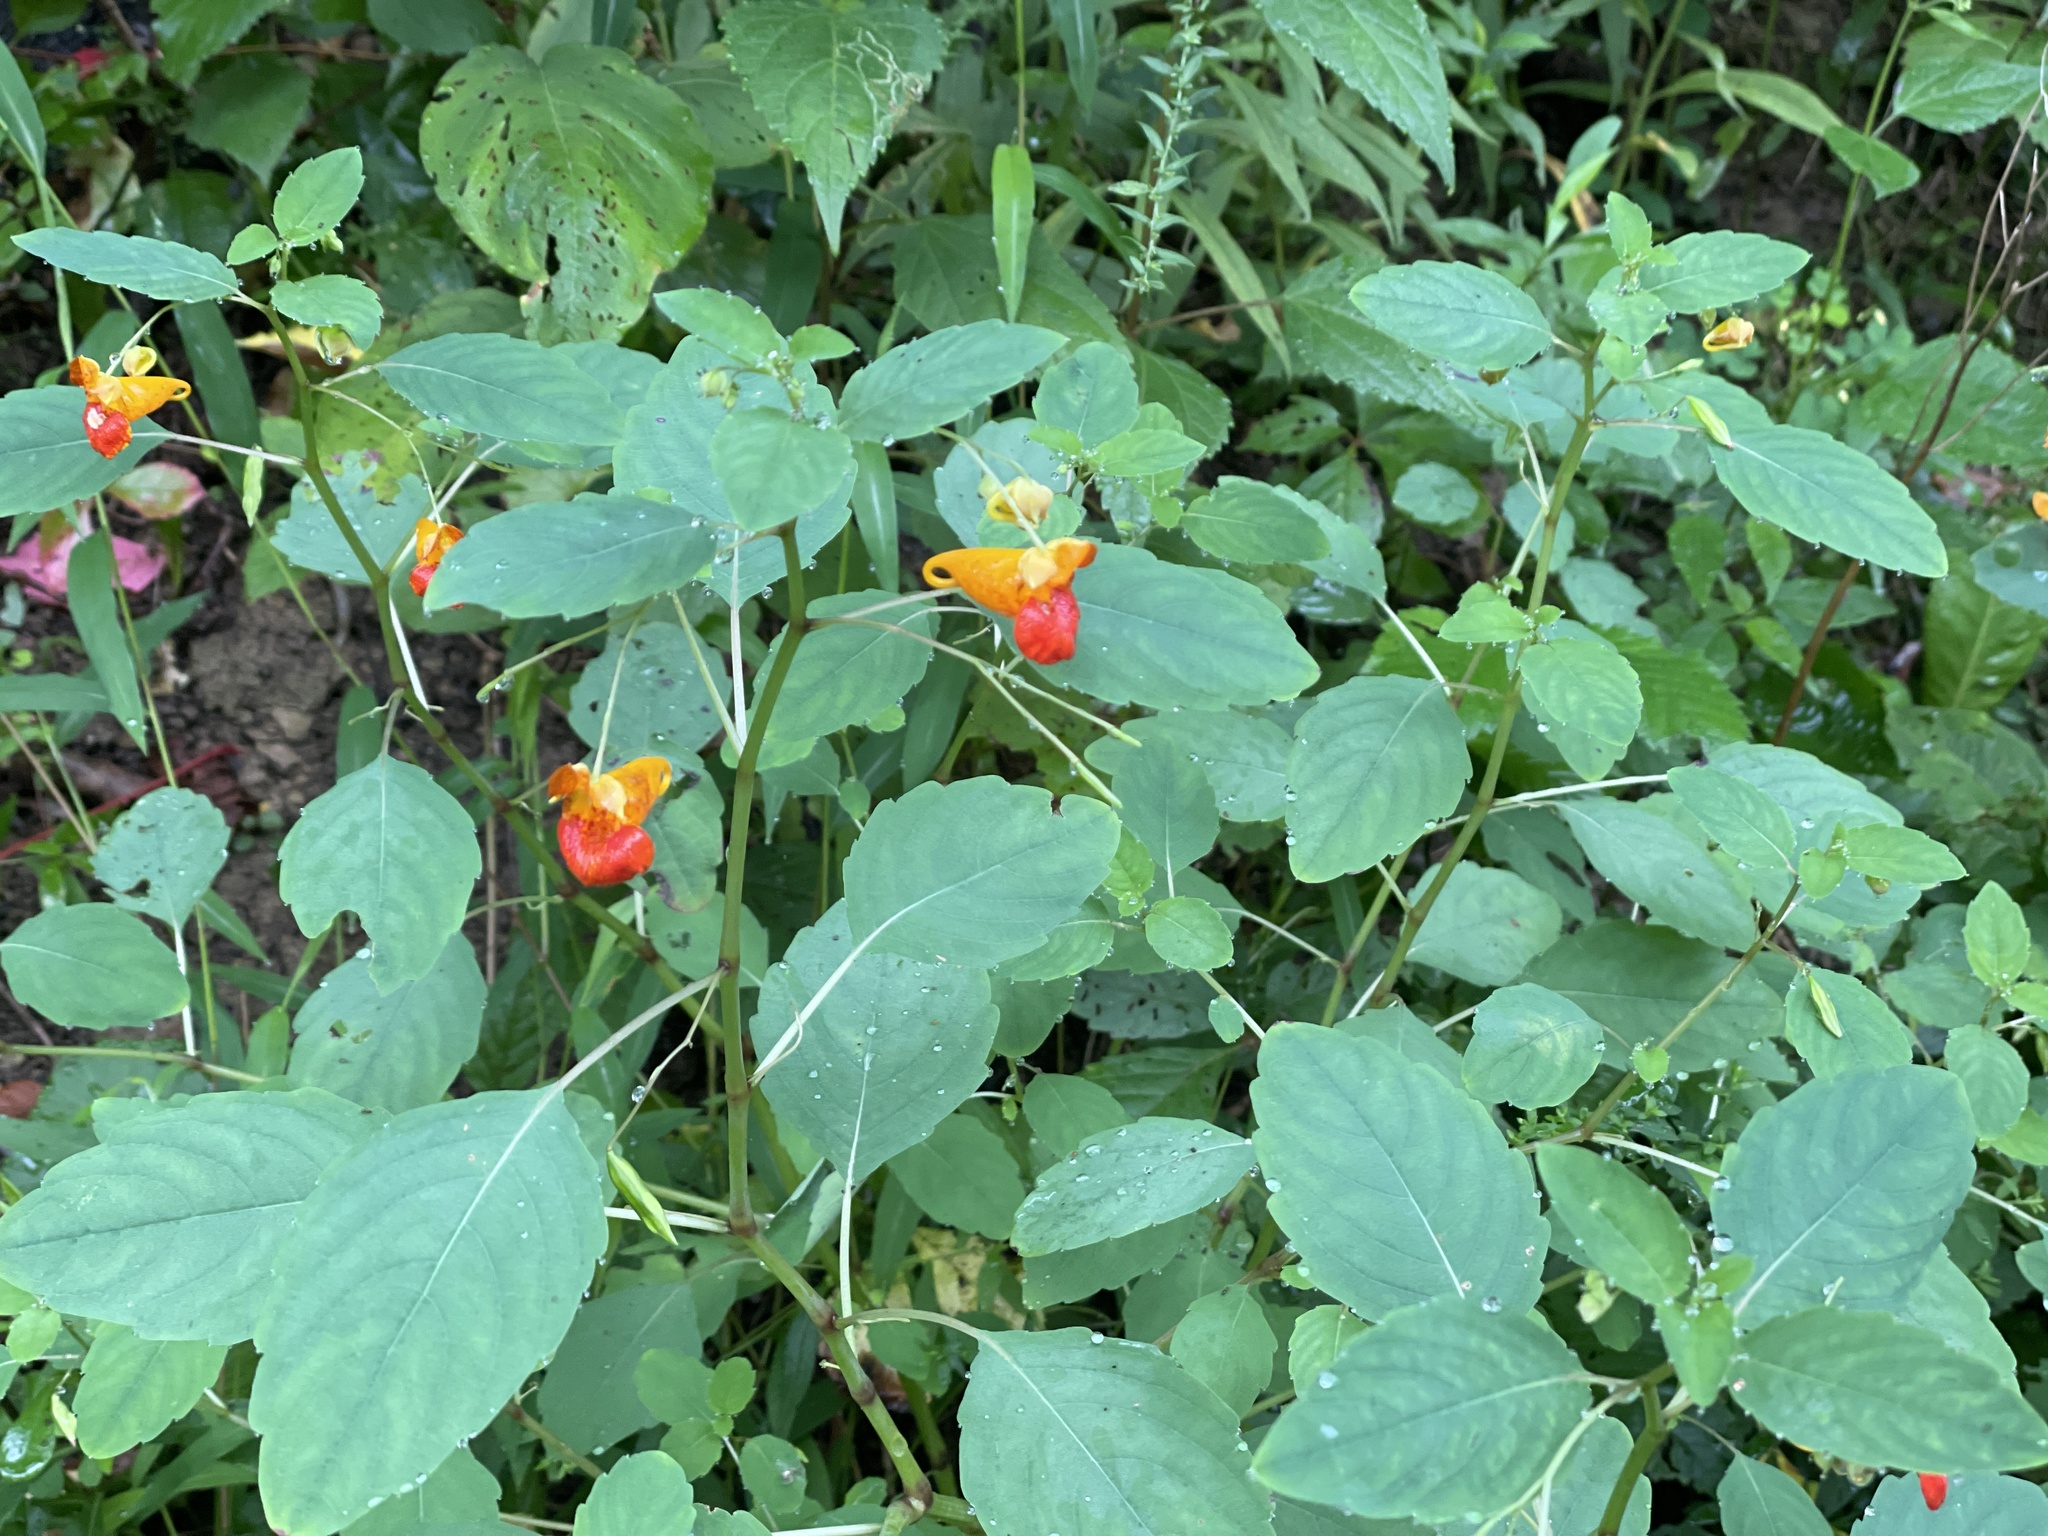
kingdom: Plantae
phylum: Tracheophyta
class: Magnoliopsida
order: Ericales
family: Balsaminaceae
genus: Impatiens
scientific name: Impatiens capensis
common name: Orange balsam
